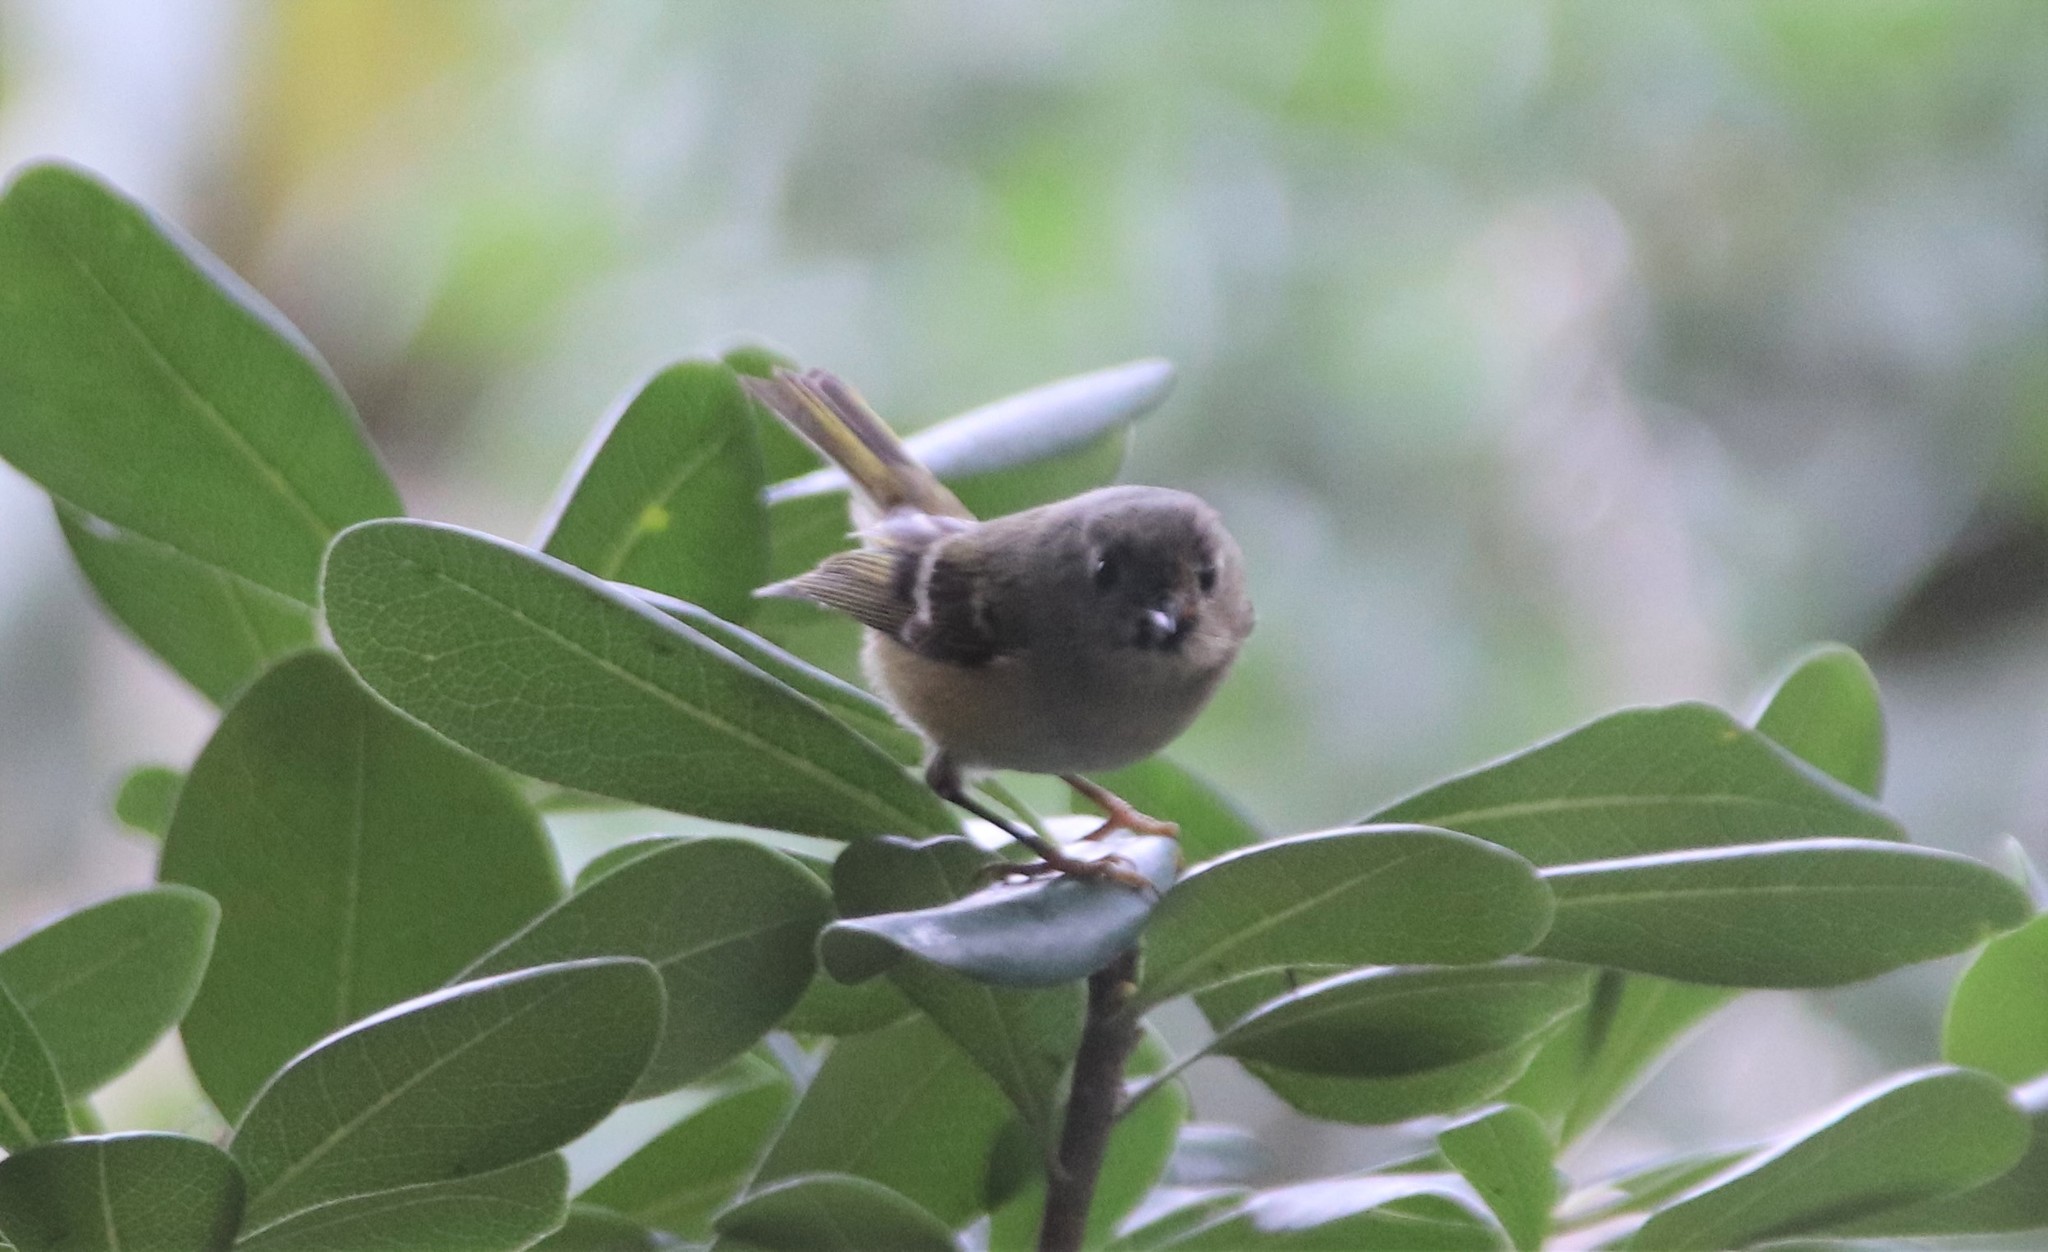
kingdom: Animalia
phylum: Chordata
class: Aves
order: Passeriformes
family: Regulidae
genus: Regulus
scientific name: Regulus calendula
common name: Ruby-crowned kinglet
